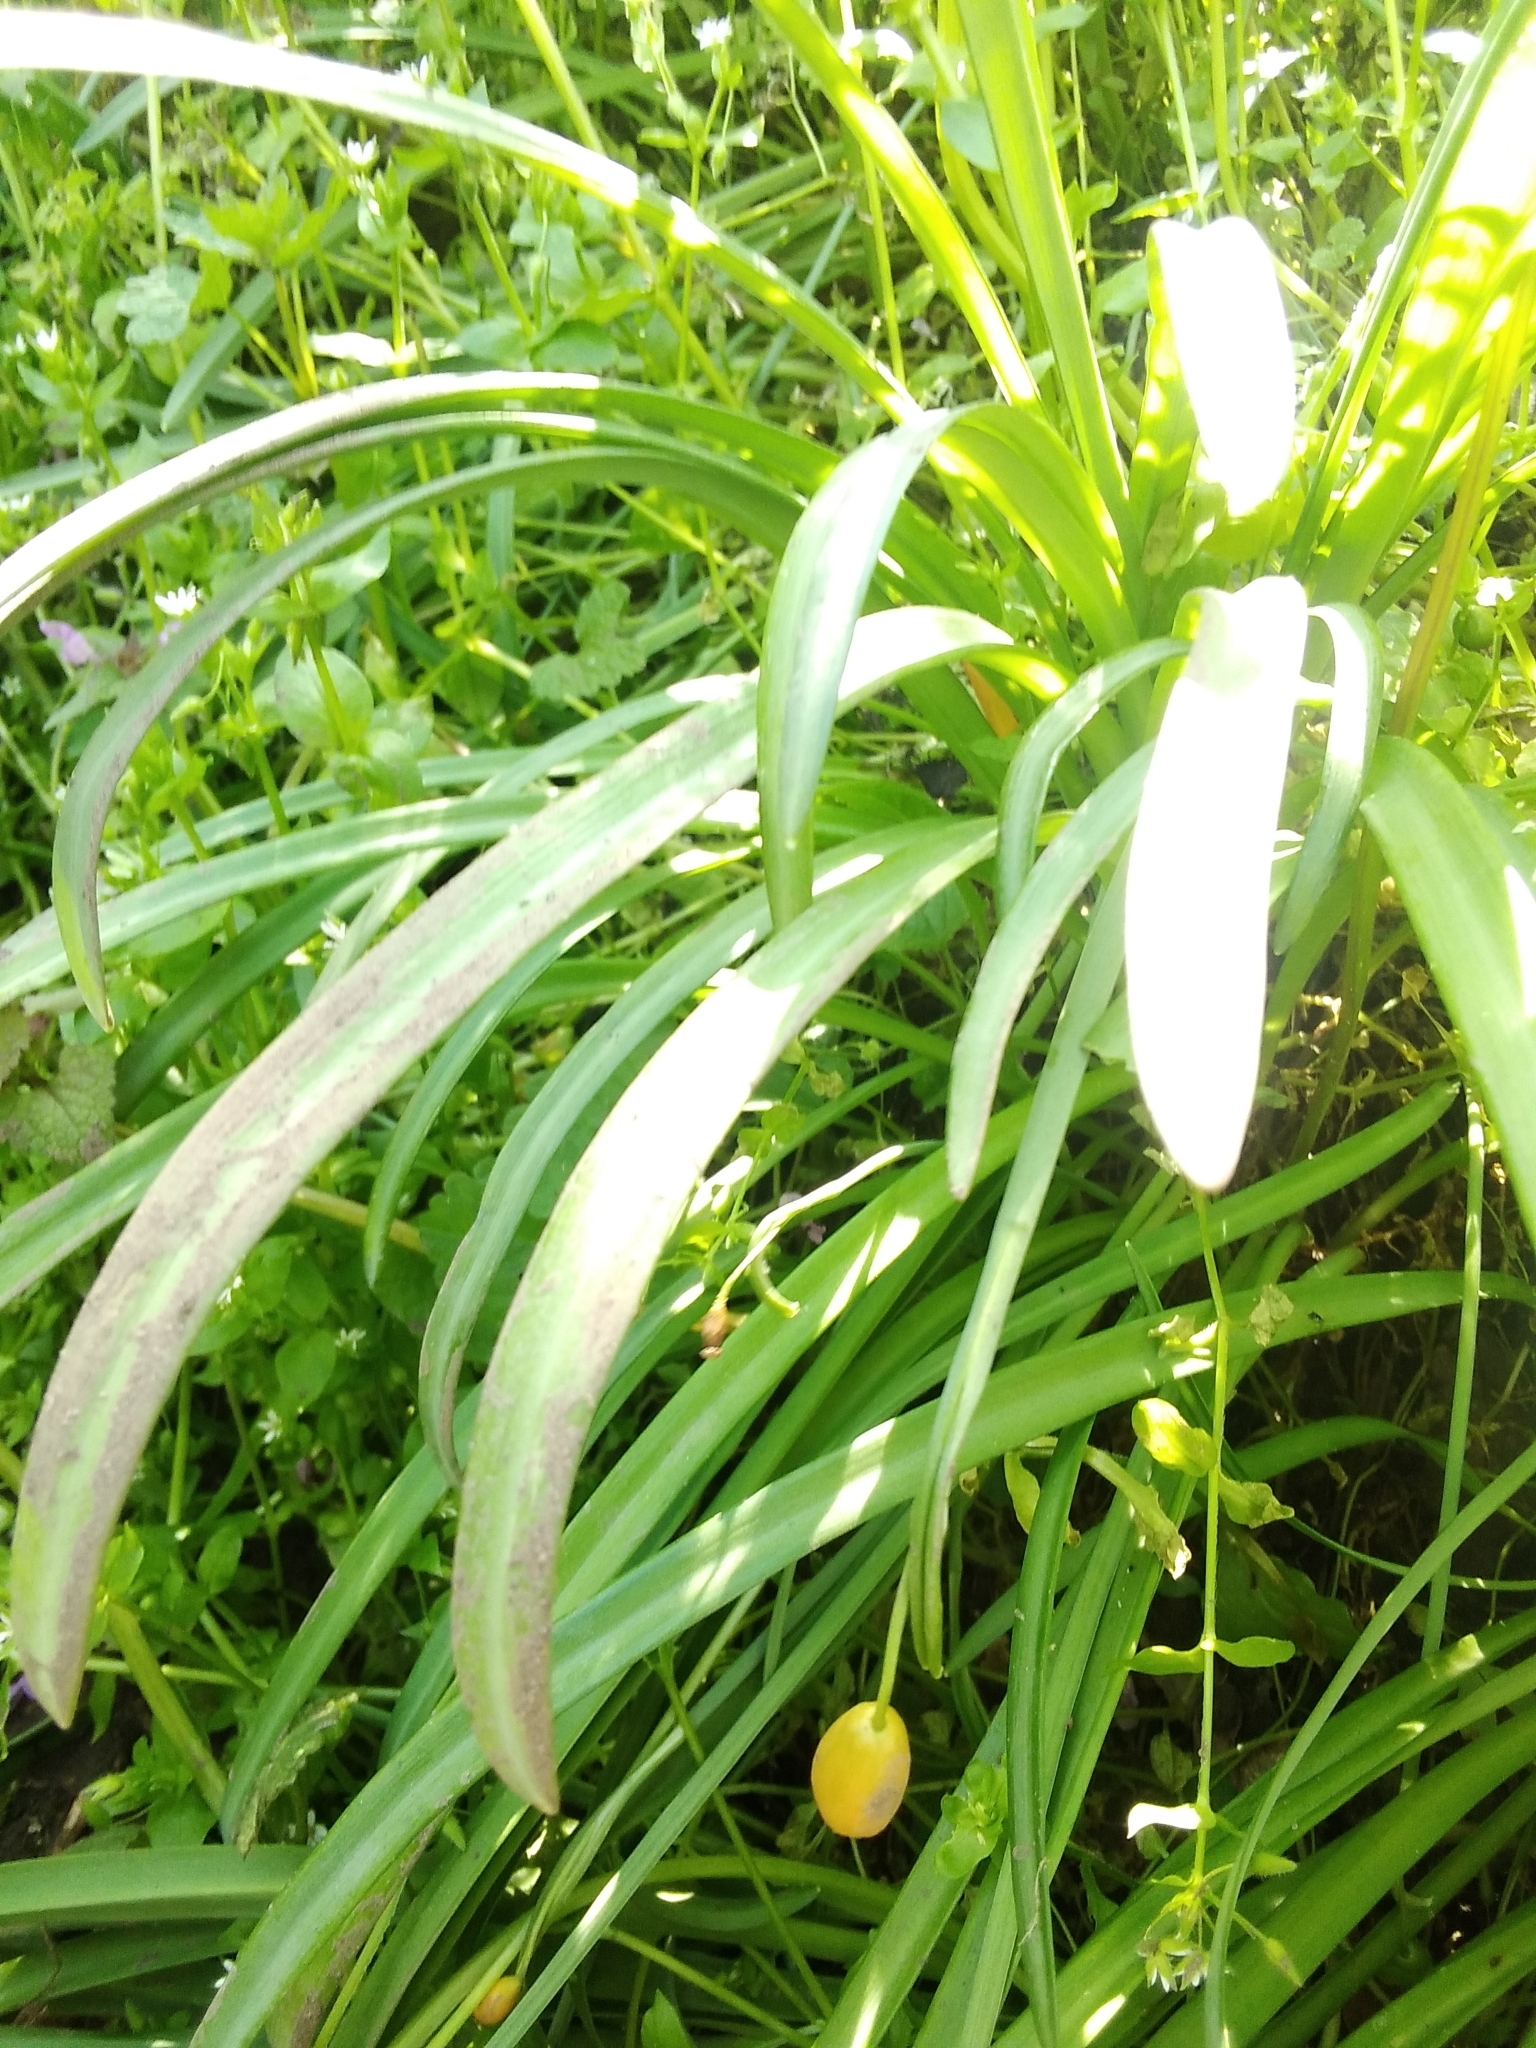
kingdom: Plantae
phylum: Tracheophyta
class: Liliopsida
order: Asparagales
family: Amaryllidaceae
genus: Galanthus
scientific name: Galanthus nivalis
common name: Snowdrop
